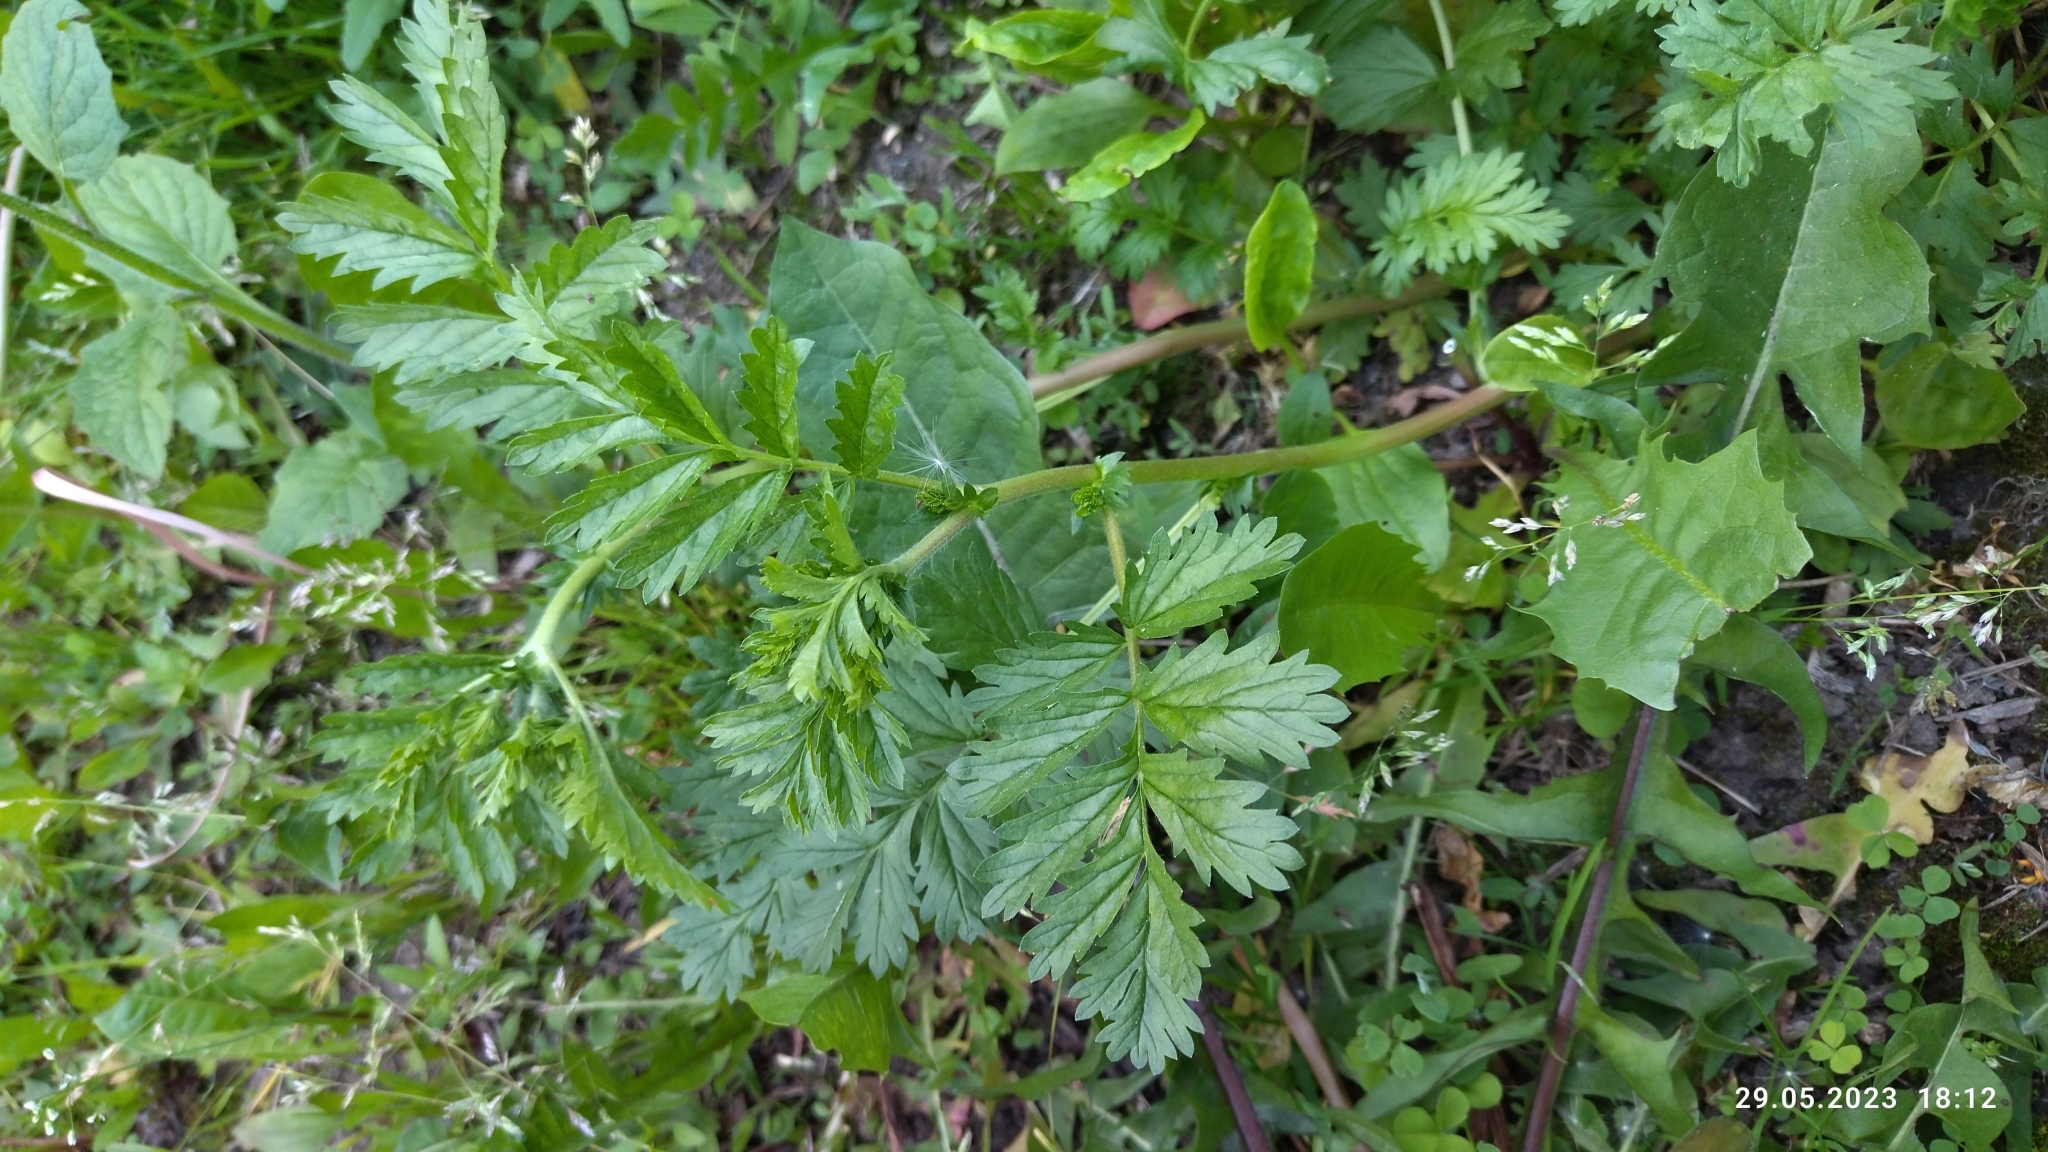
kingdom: Plantae
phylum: Tracheophyta
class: Magnoliopsida
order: Rosales
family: Rosaceae
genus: Potentilla
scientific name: Potentilla supina
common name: Prostrate cinquefoil
